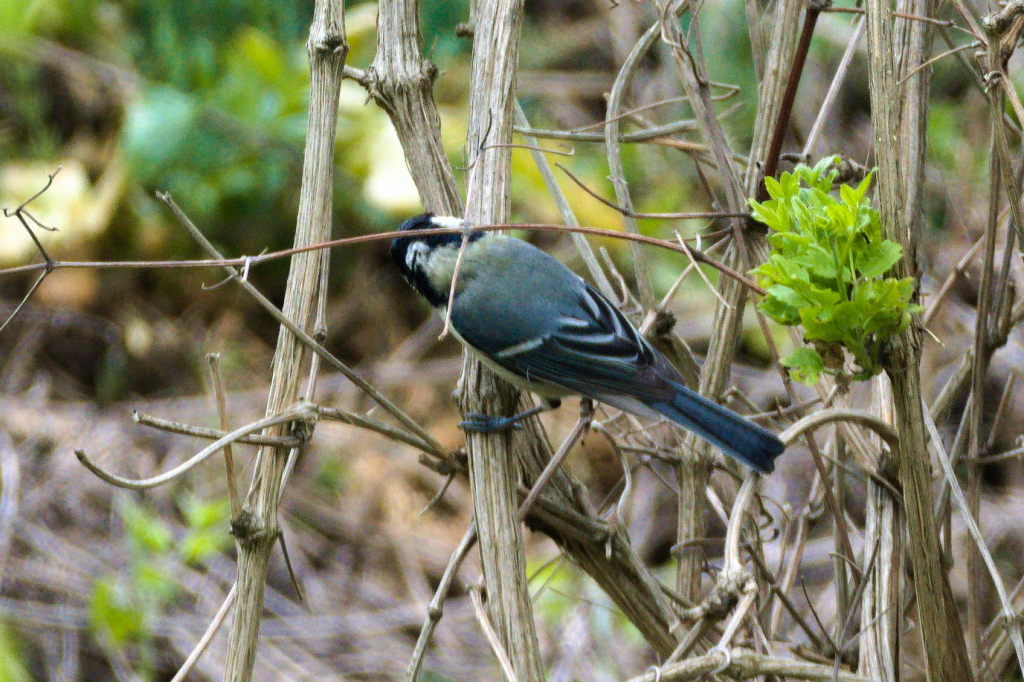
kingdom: Animalia
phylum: Chordata
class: Aves
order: Passeriformes
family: Paridae
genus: Parus
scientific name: Parus major
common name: Great tit
